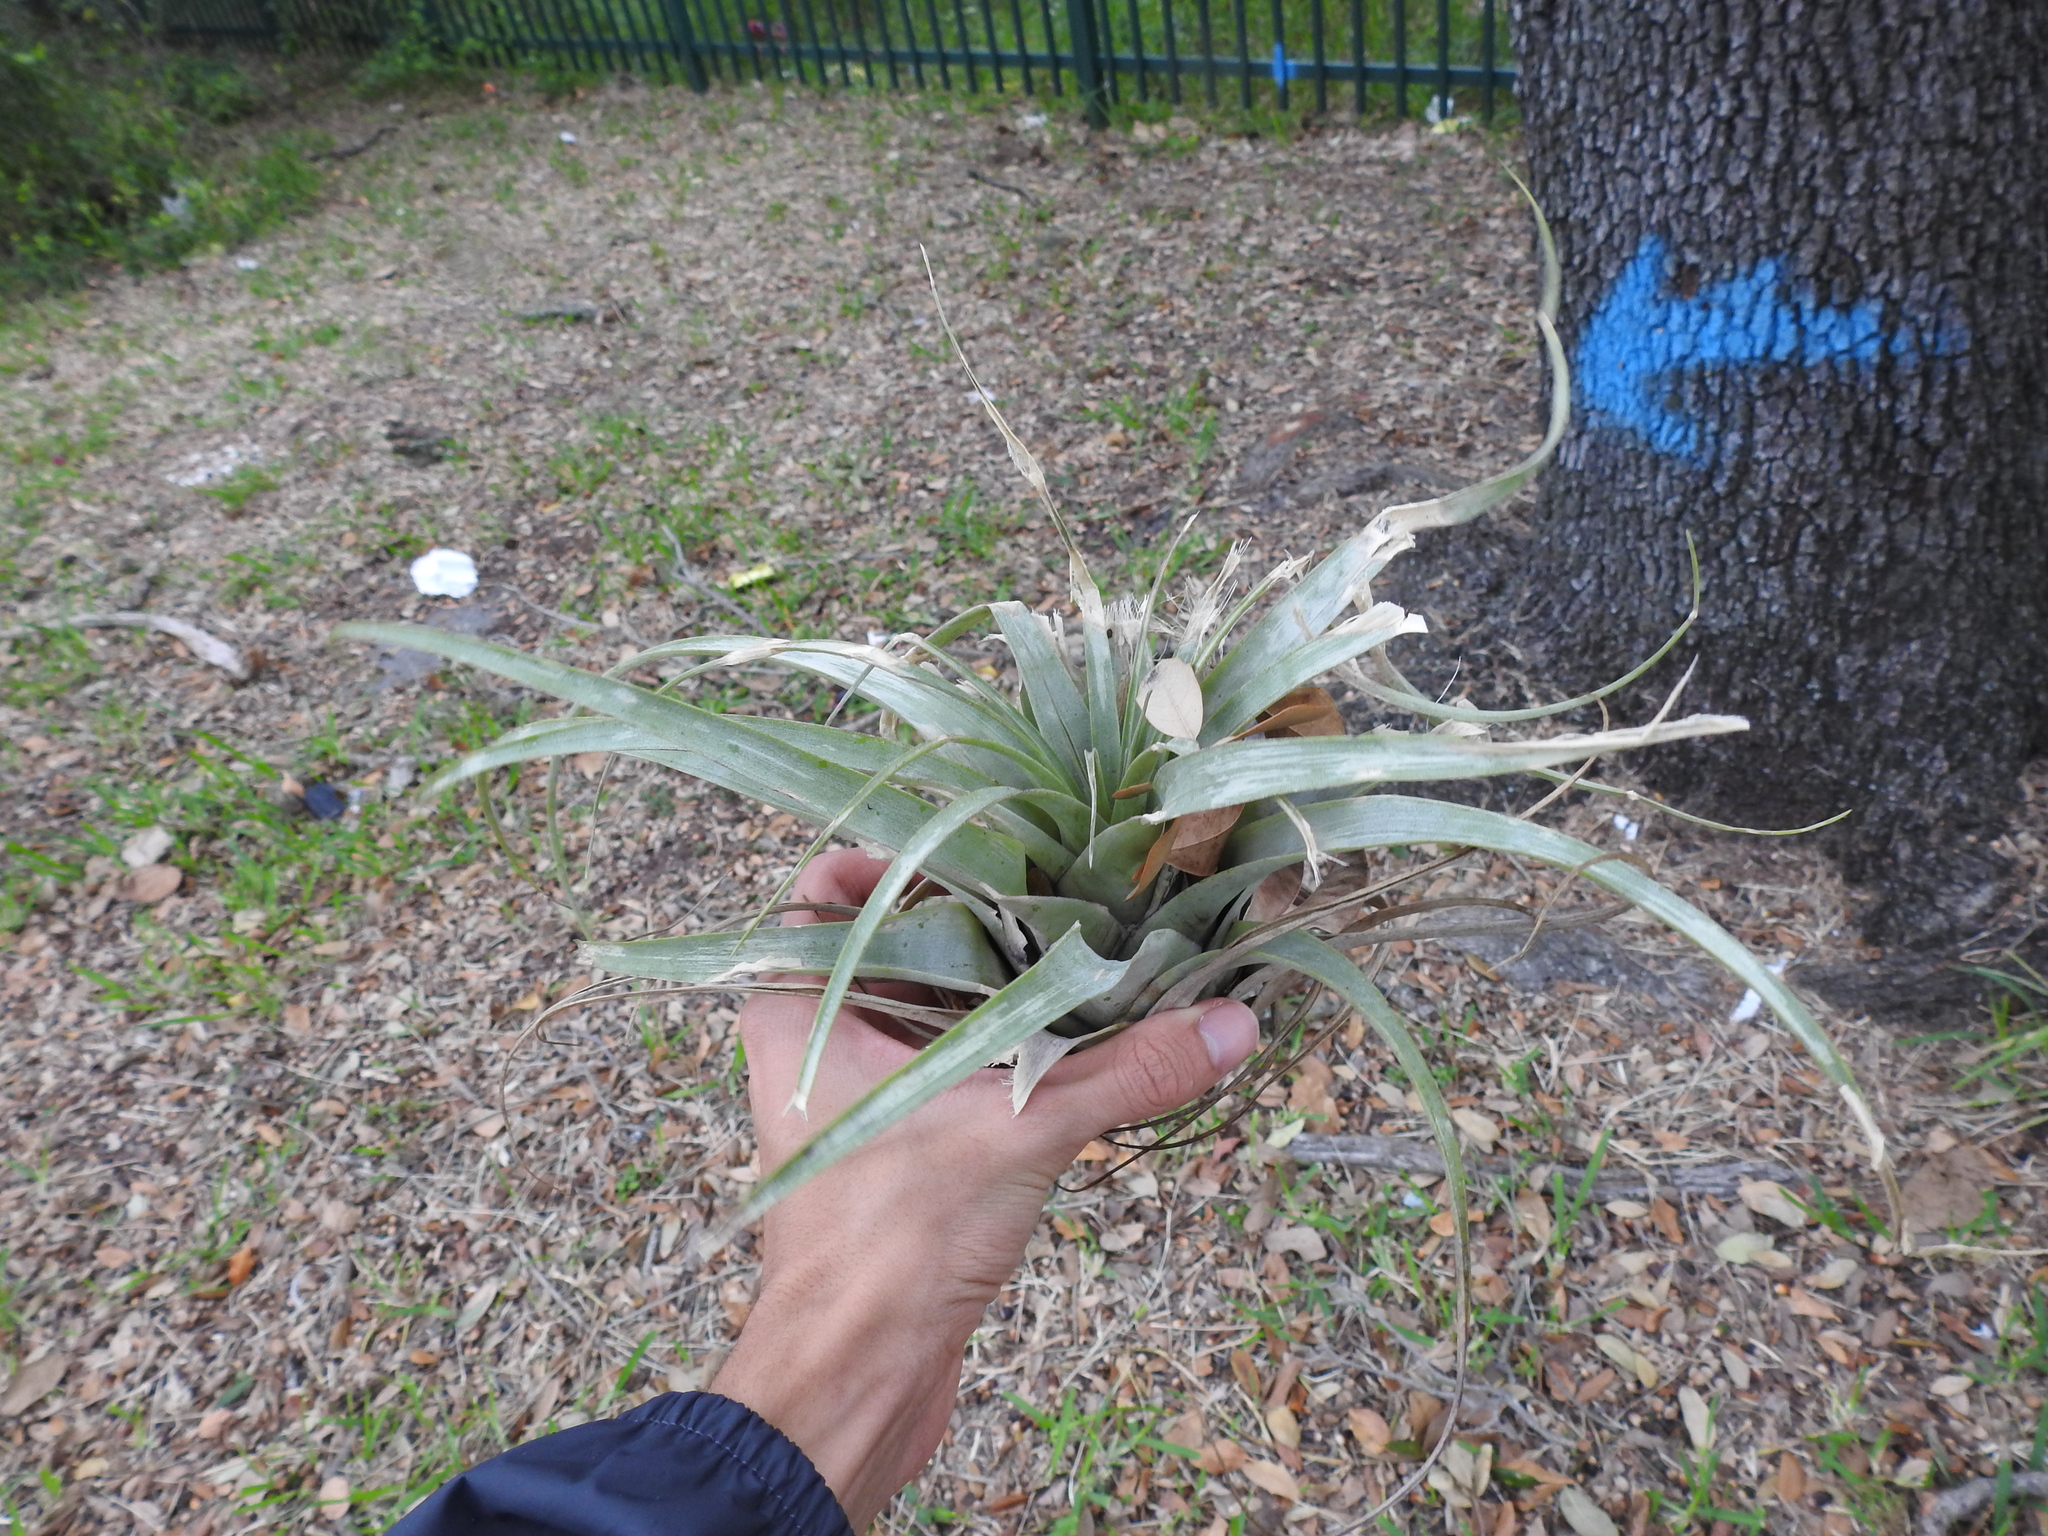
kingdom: Plantae
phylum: Tracheophyta
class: Liliopsida
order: Poales
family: Bromeliaceae
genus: Tillandsia
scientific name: Tillandsia utriculata
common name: Wild pine
